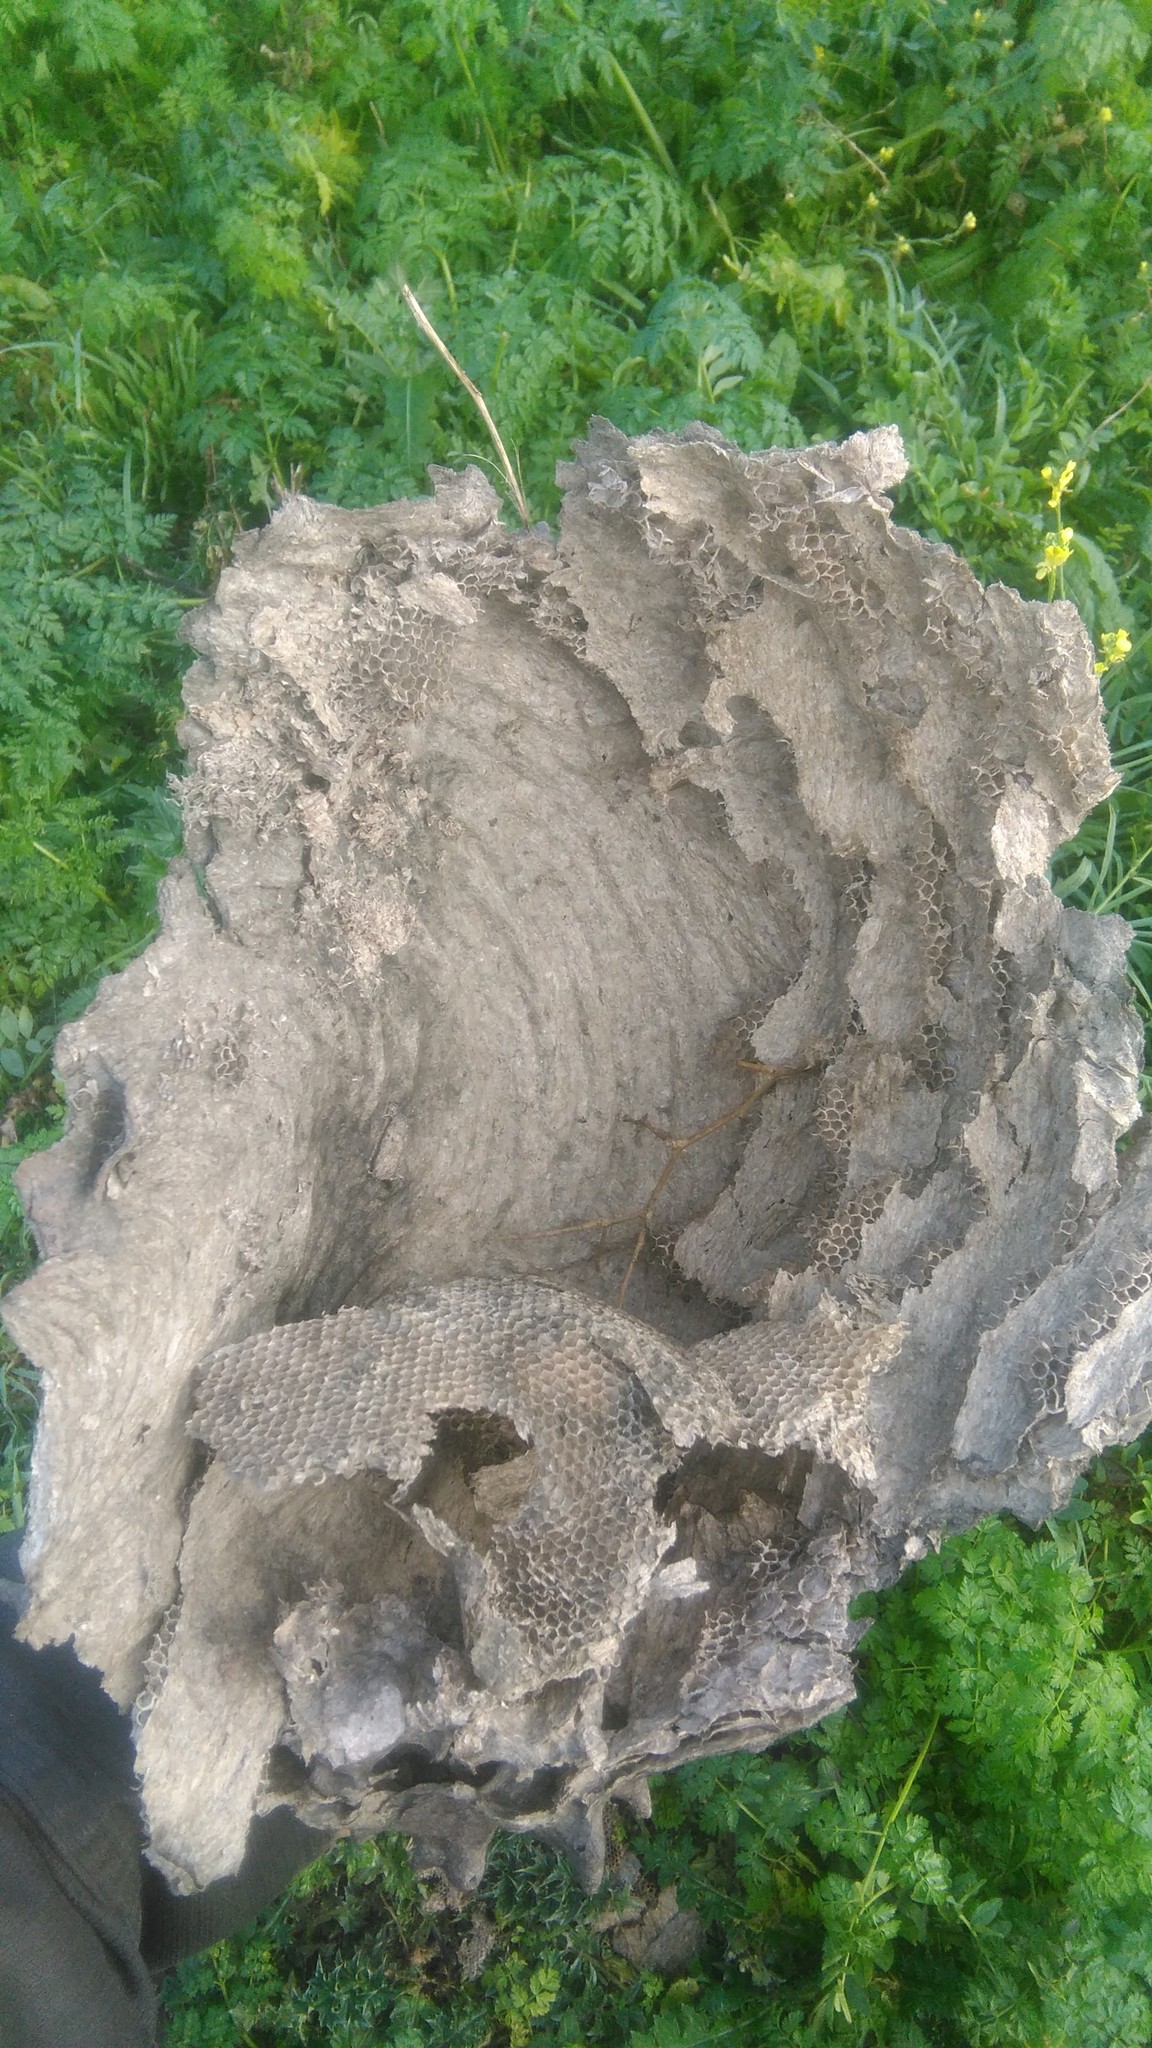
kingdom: Animalia
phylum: Arthropoda
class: Insecta
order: Hymenoptera
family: Eumenidae
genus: Polybia
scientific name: Polybia scutellaris
